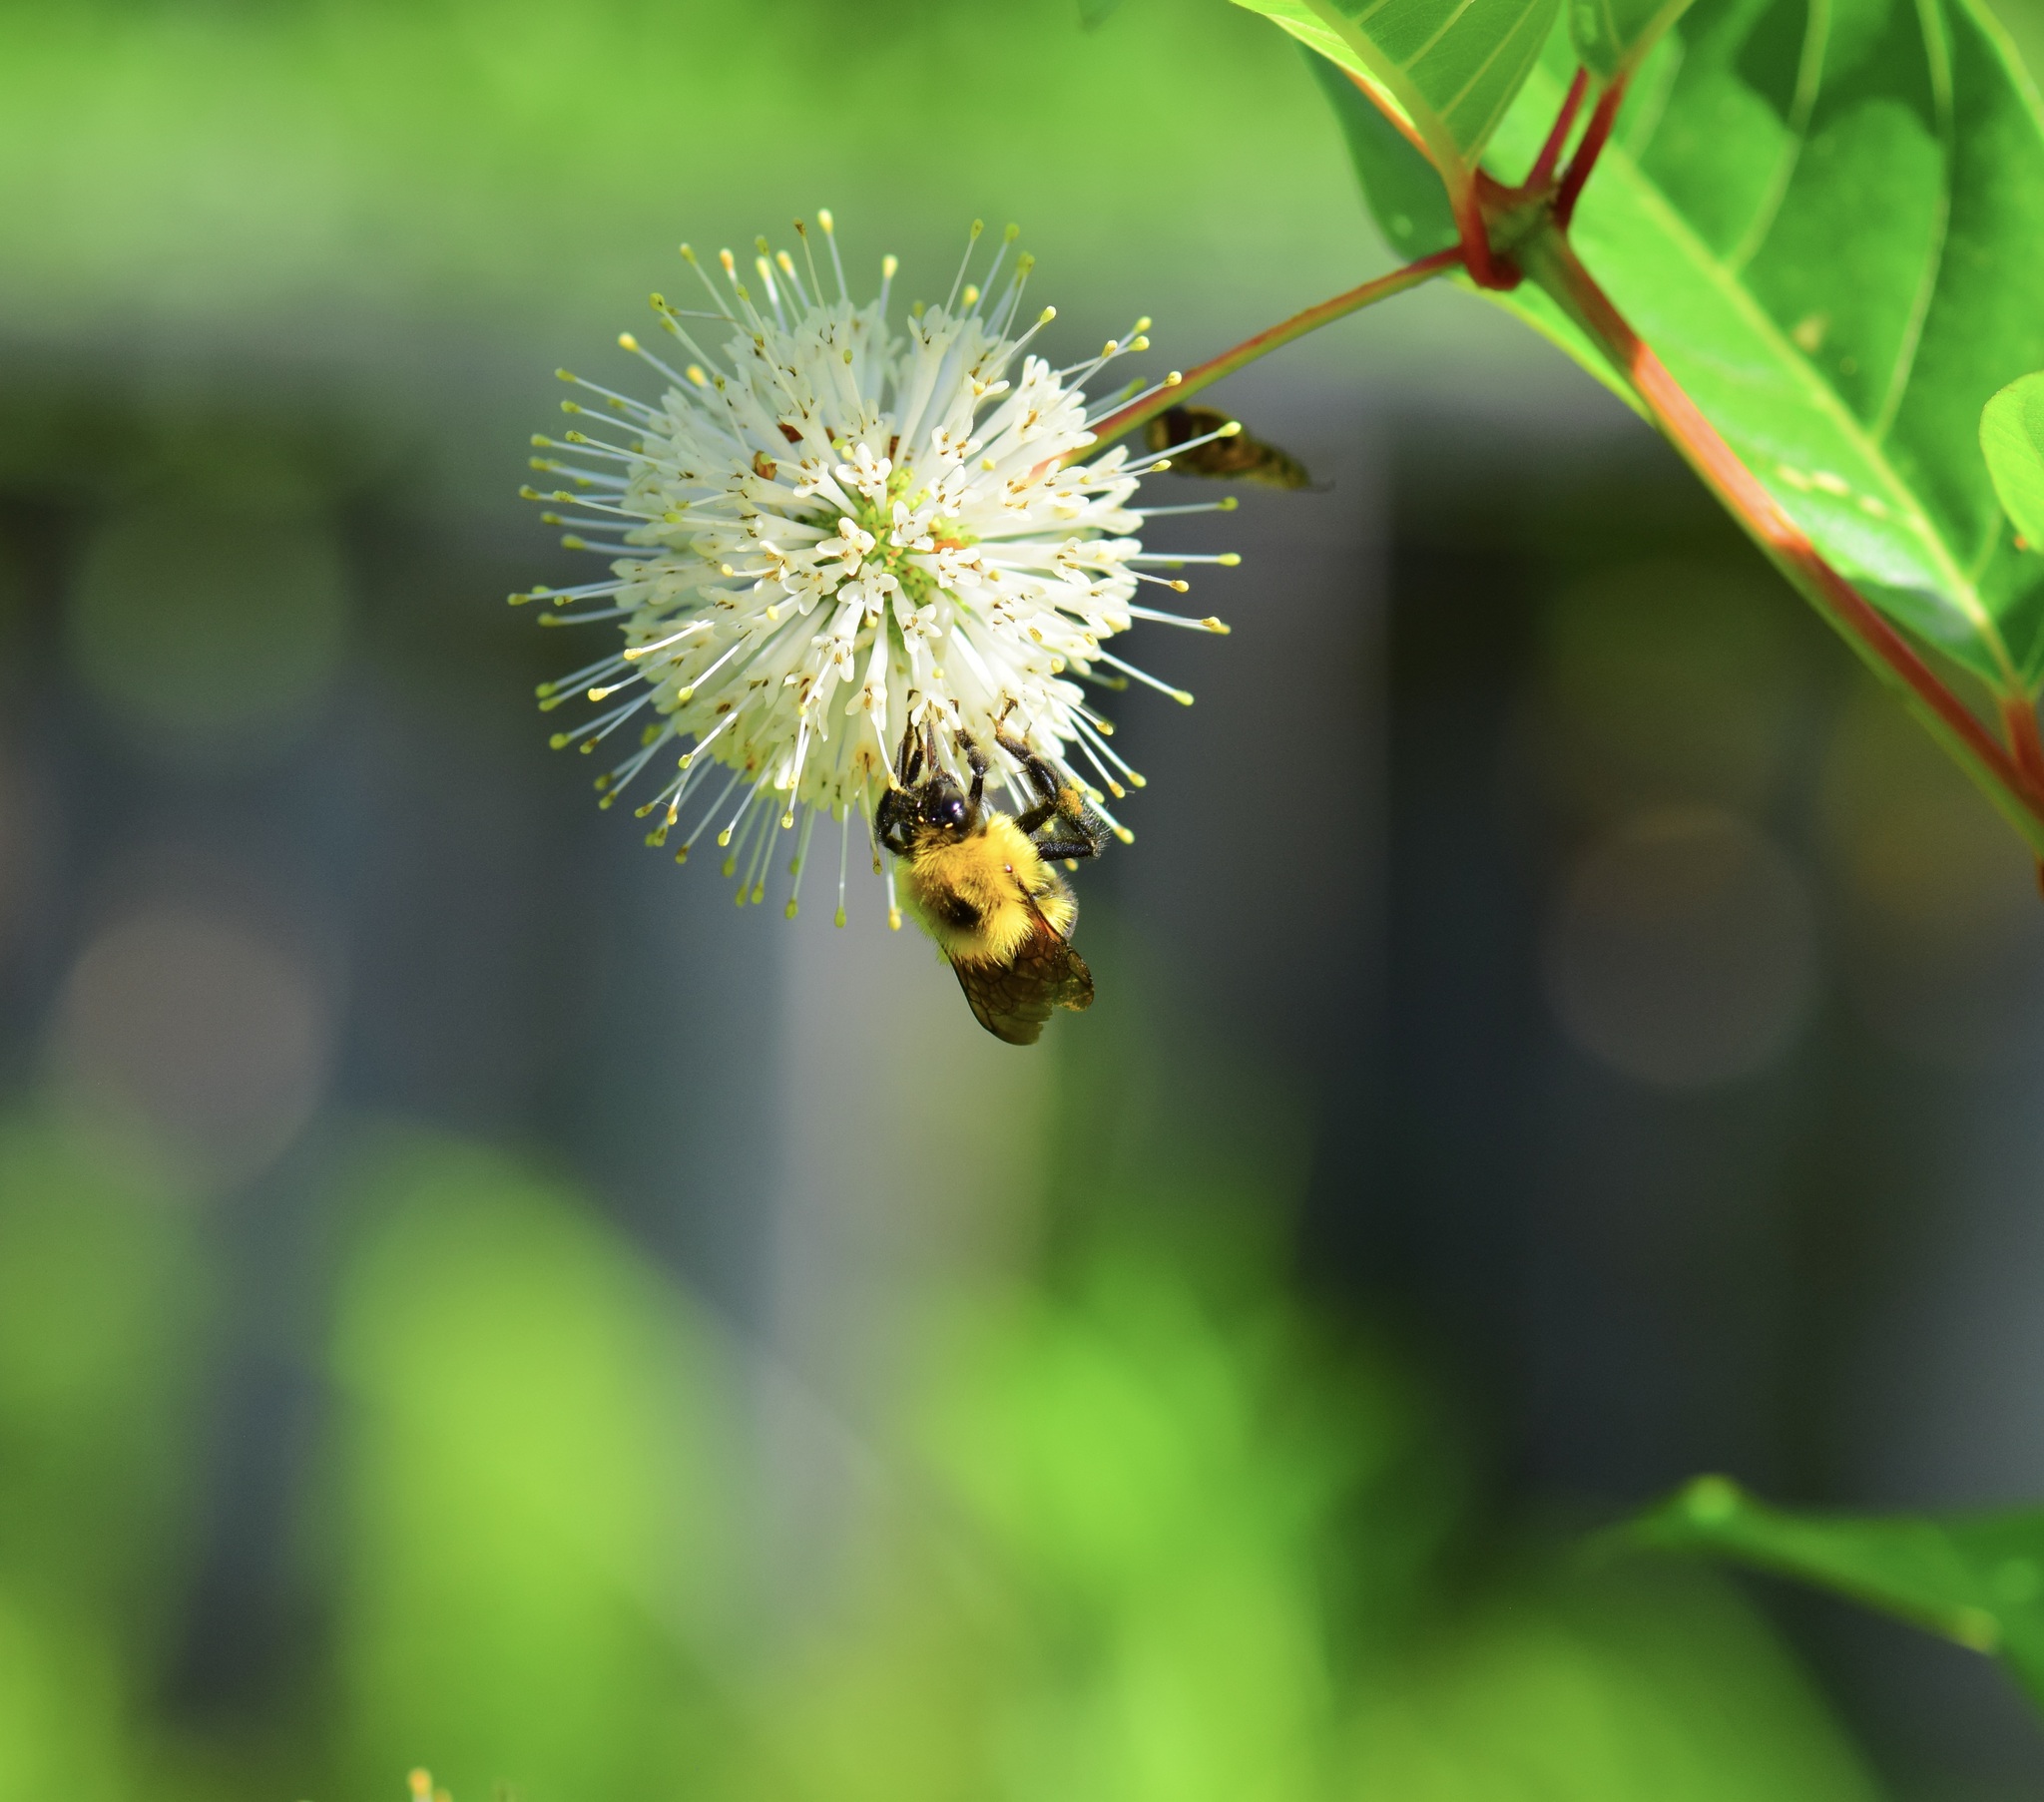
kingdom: Animalia
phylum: Arthropoda
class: Insecta
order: Hymenoptera
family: Apidae
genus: Bombus
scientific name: Bombus bimaculatus
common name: Two-spotted bumble bee
